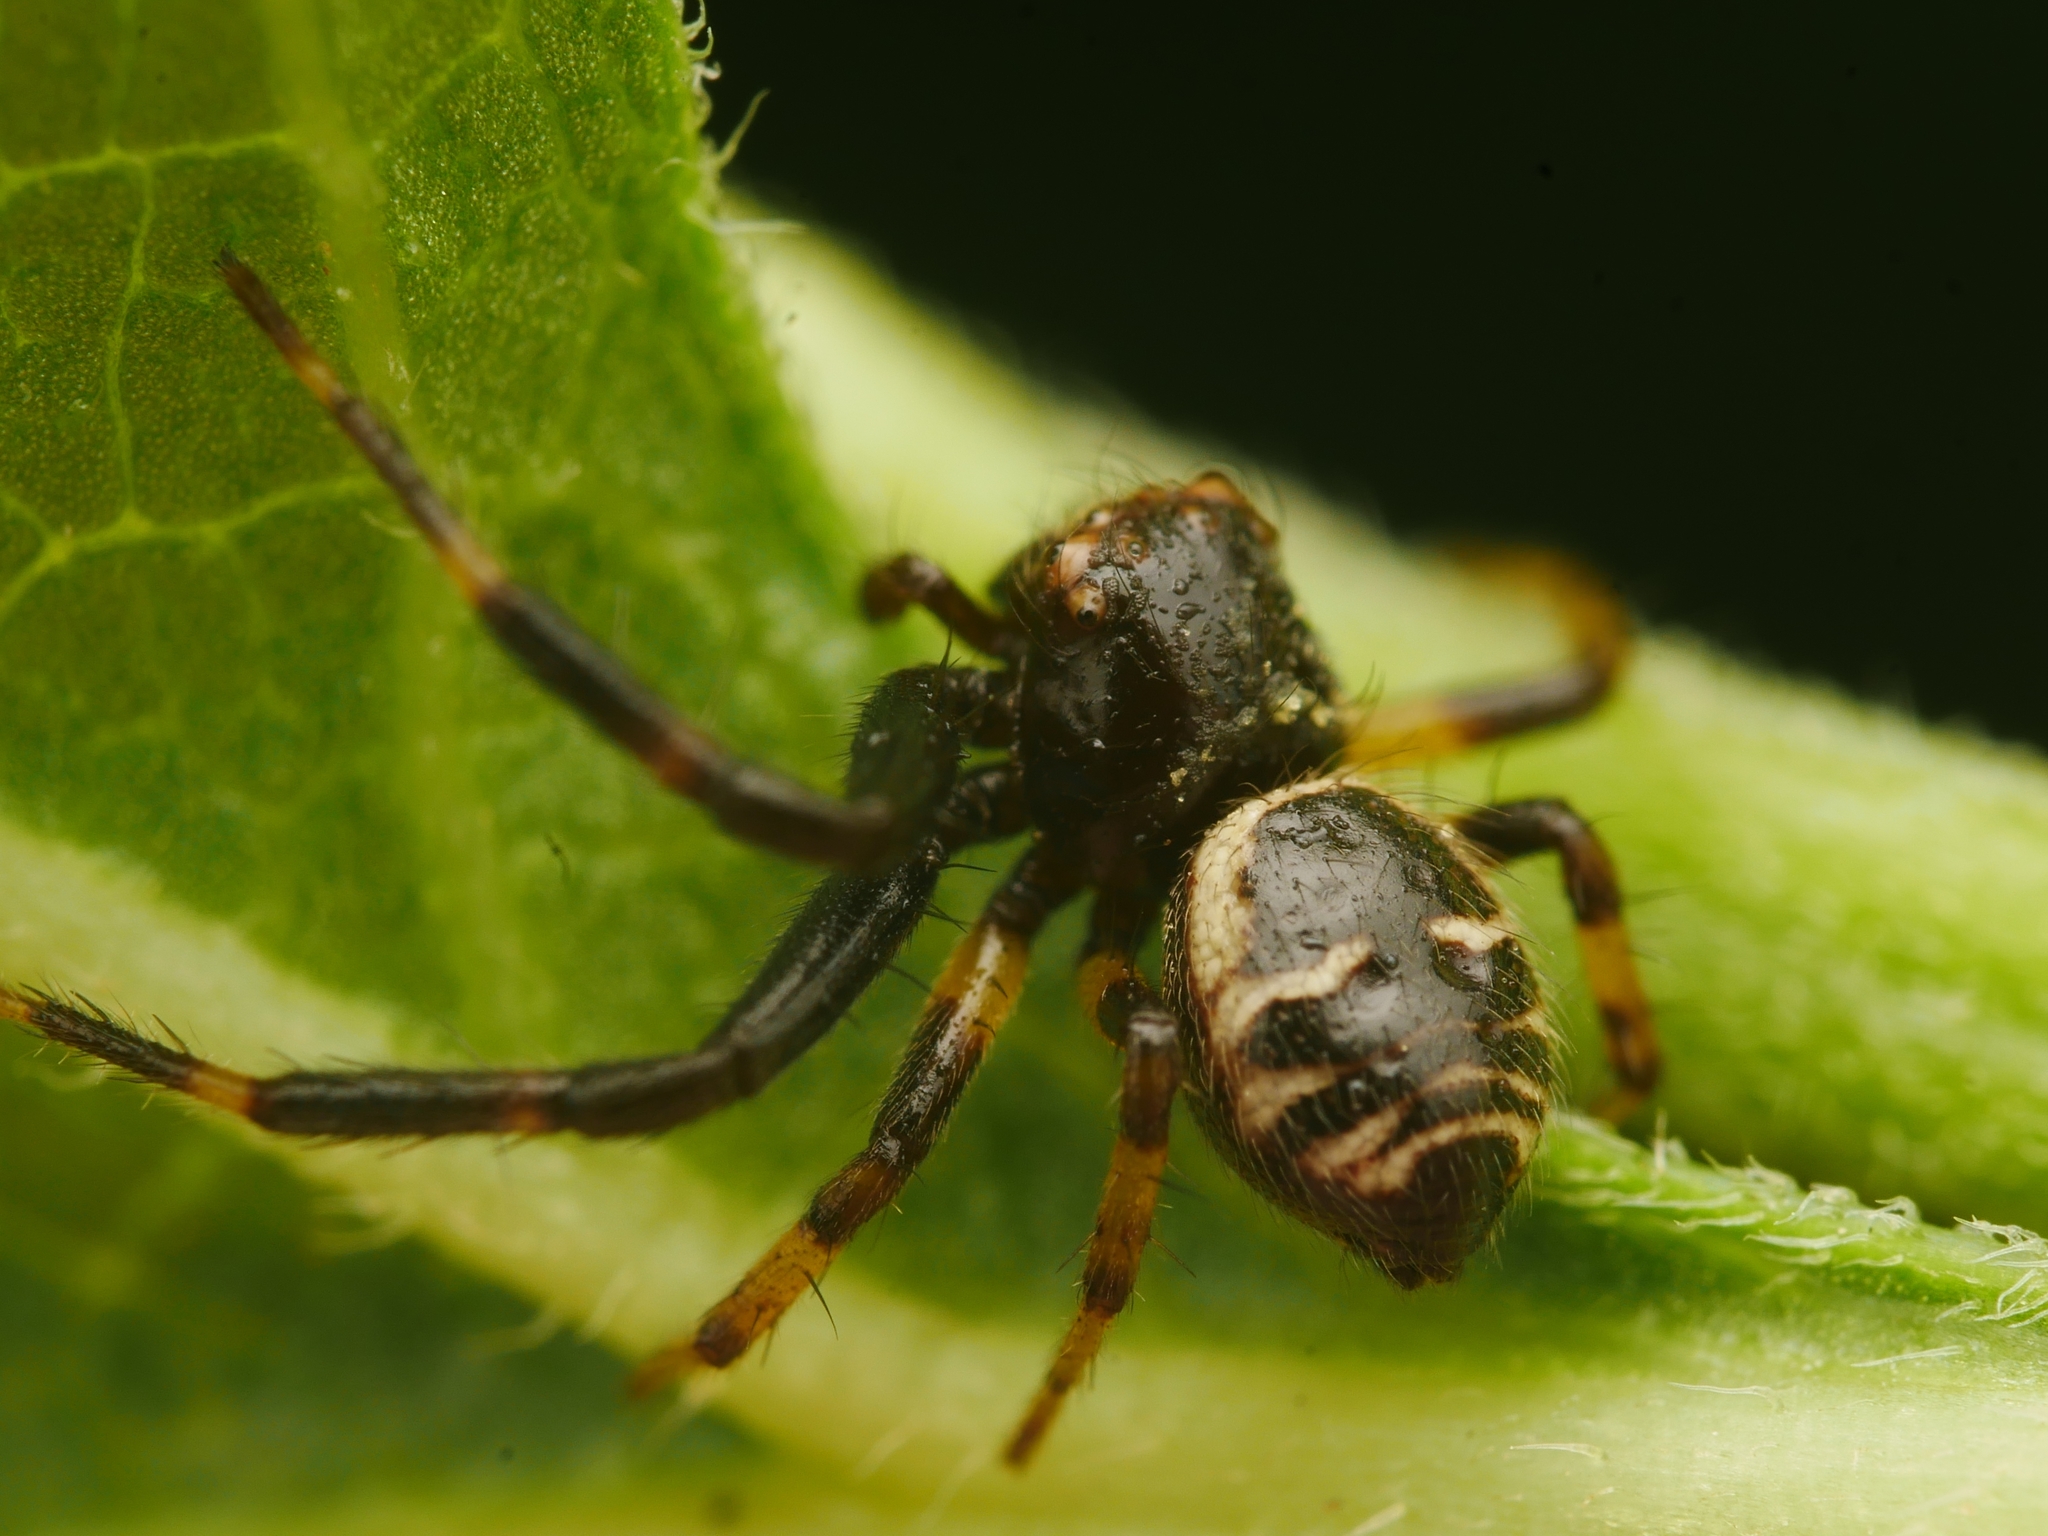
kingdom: Animalia
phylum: Arthropoda
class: Arachnida
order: Araneae
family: Thomisidae
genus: Synema
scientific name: Synema globosum
